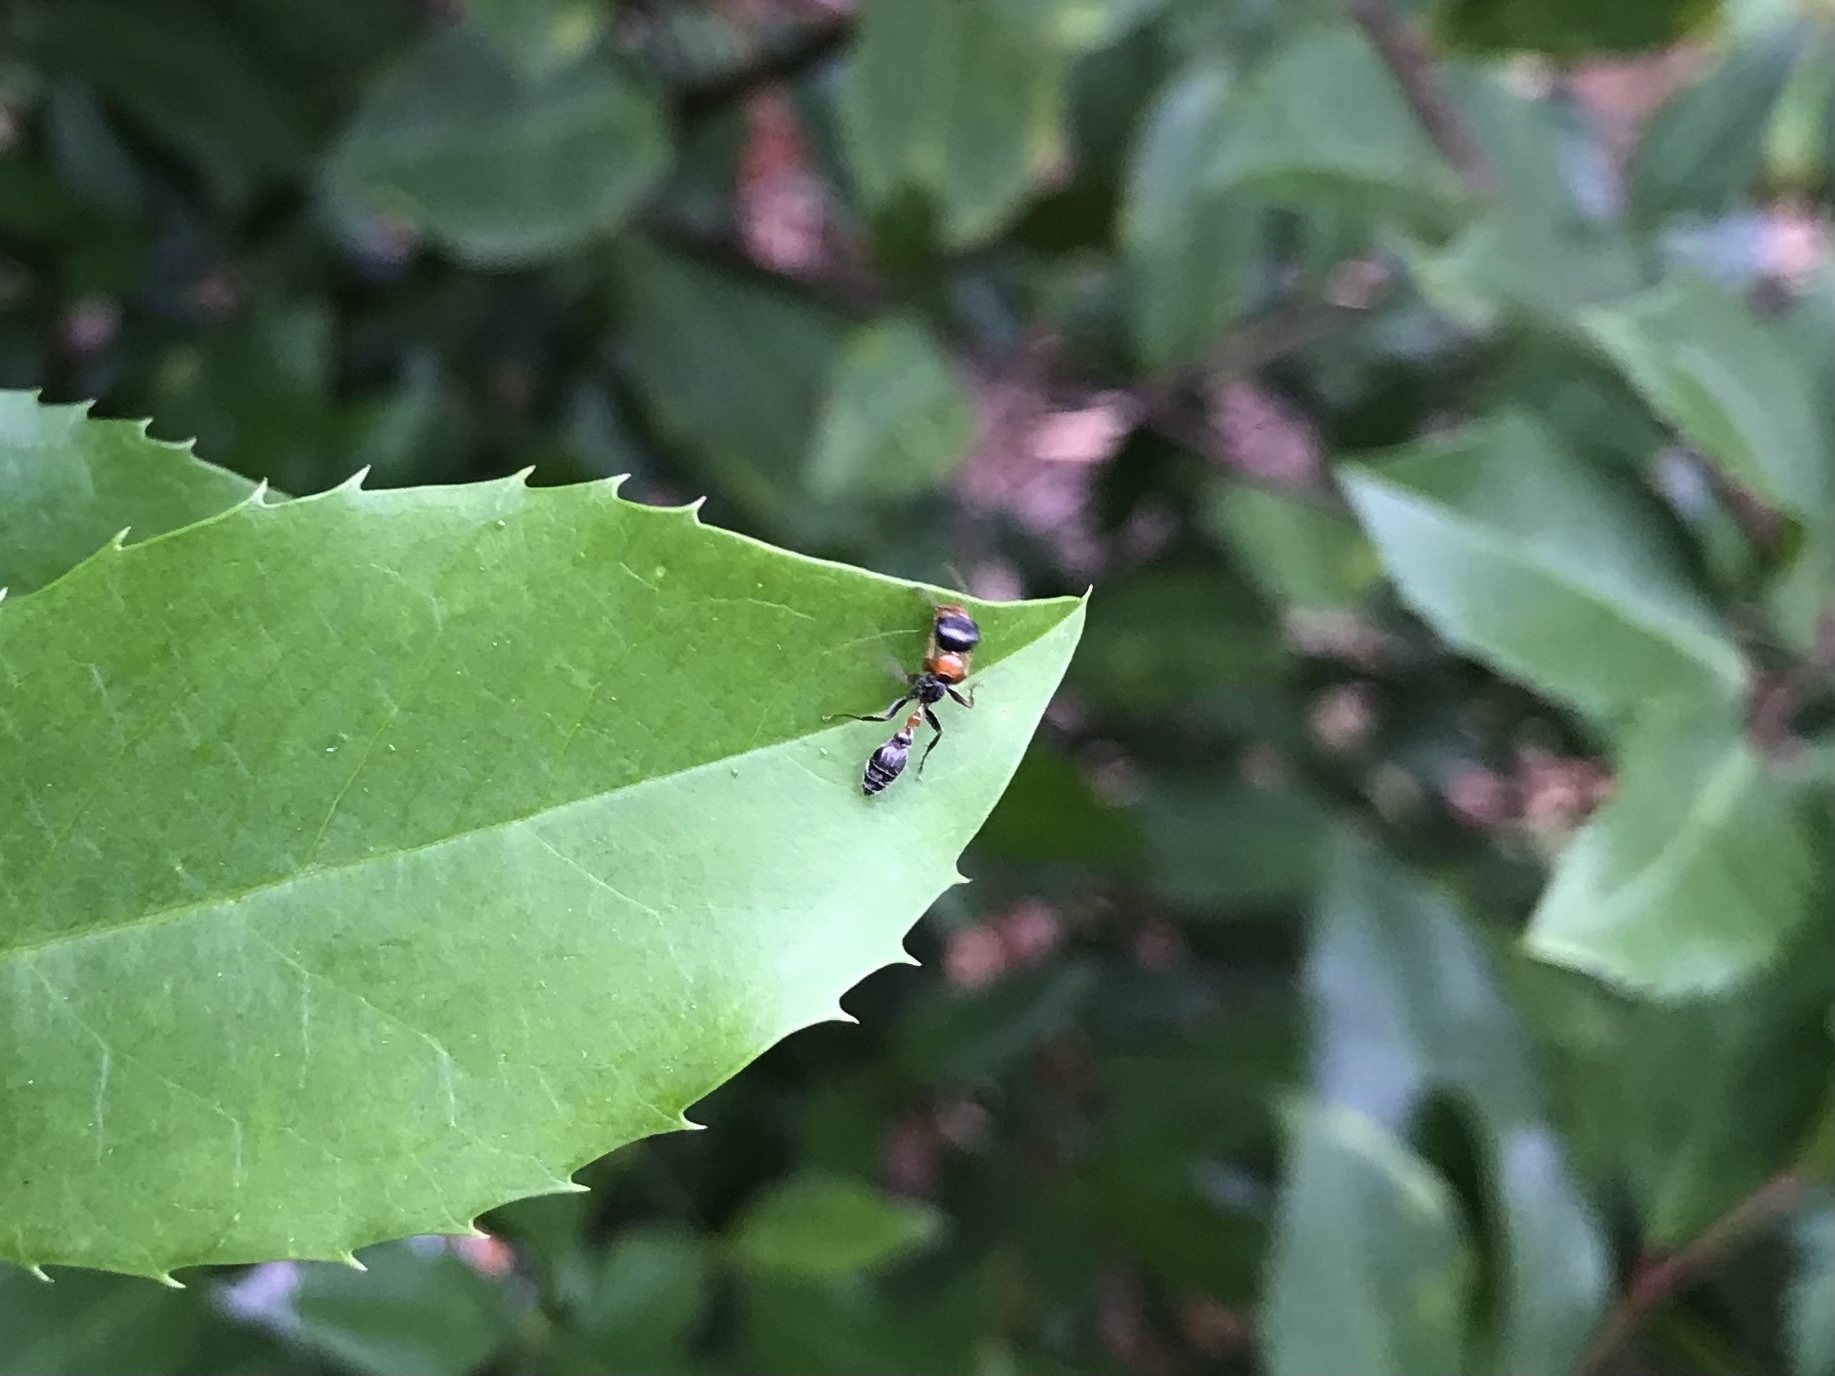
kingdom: Animalia
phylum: Arthropoda
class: Insecta
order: Hymenoptera
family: Formicidae
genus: Pseudomyrmex
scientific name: Pseudomyrmex gracilis
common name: Graceful twig ant
